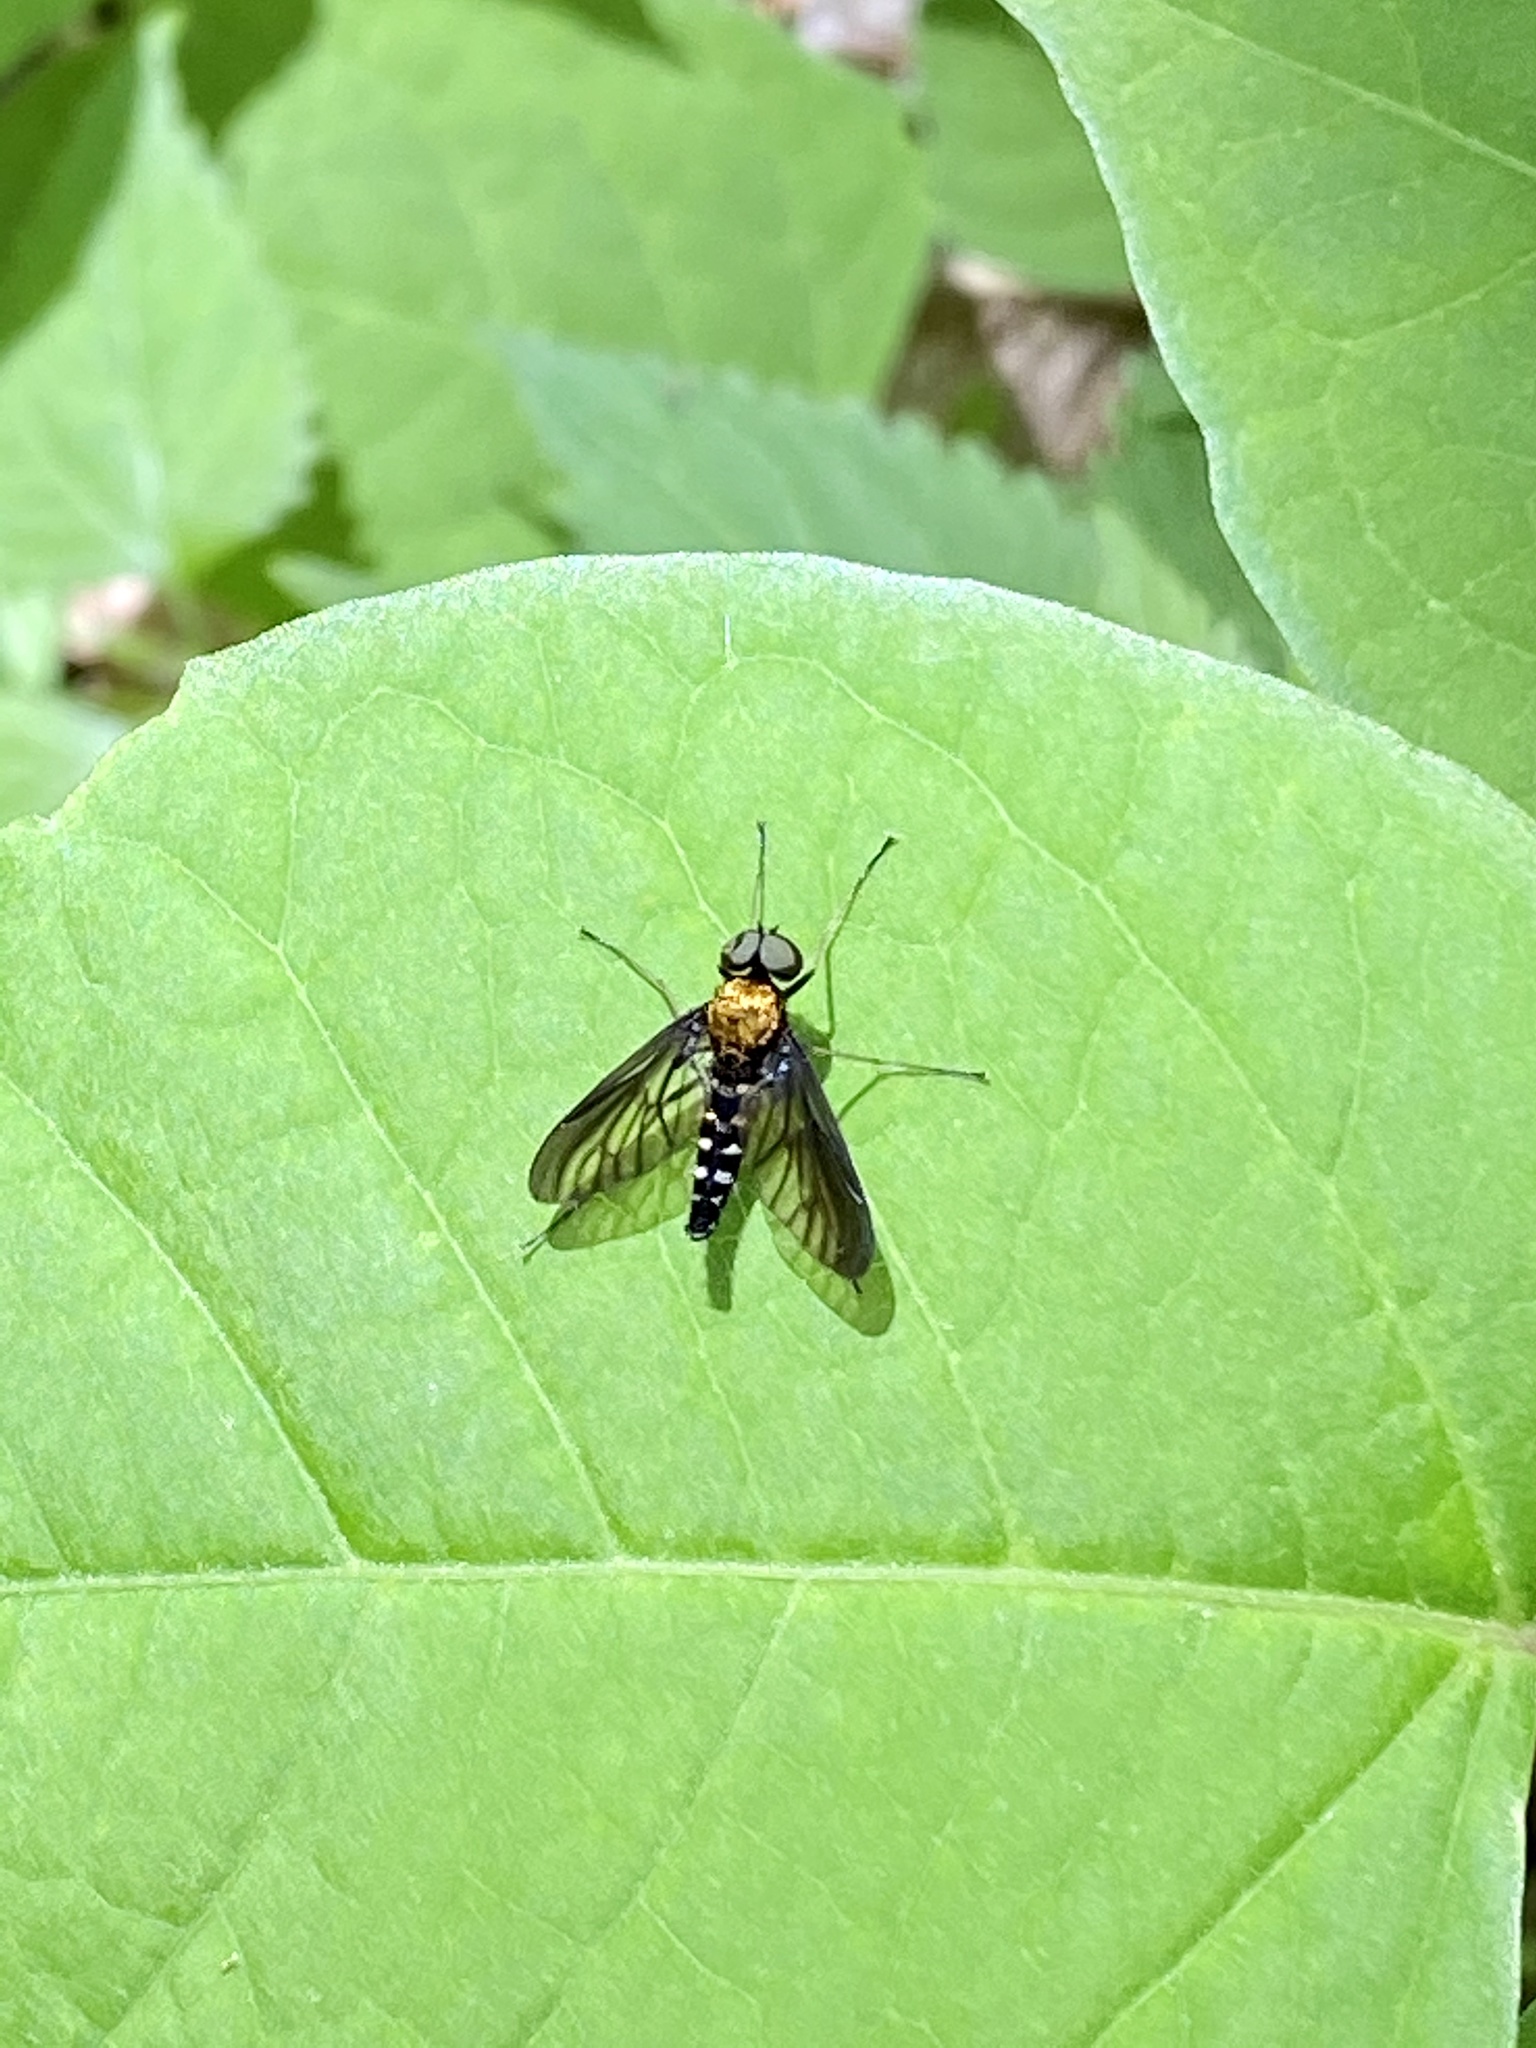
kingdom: Animalia
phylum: Arthropoda
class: Insecta
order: Diptera
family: Rhagionidae
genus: Chrysopilus
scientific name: Chrysopilus thoracicus
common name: Golden-backed snipe fly
